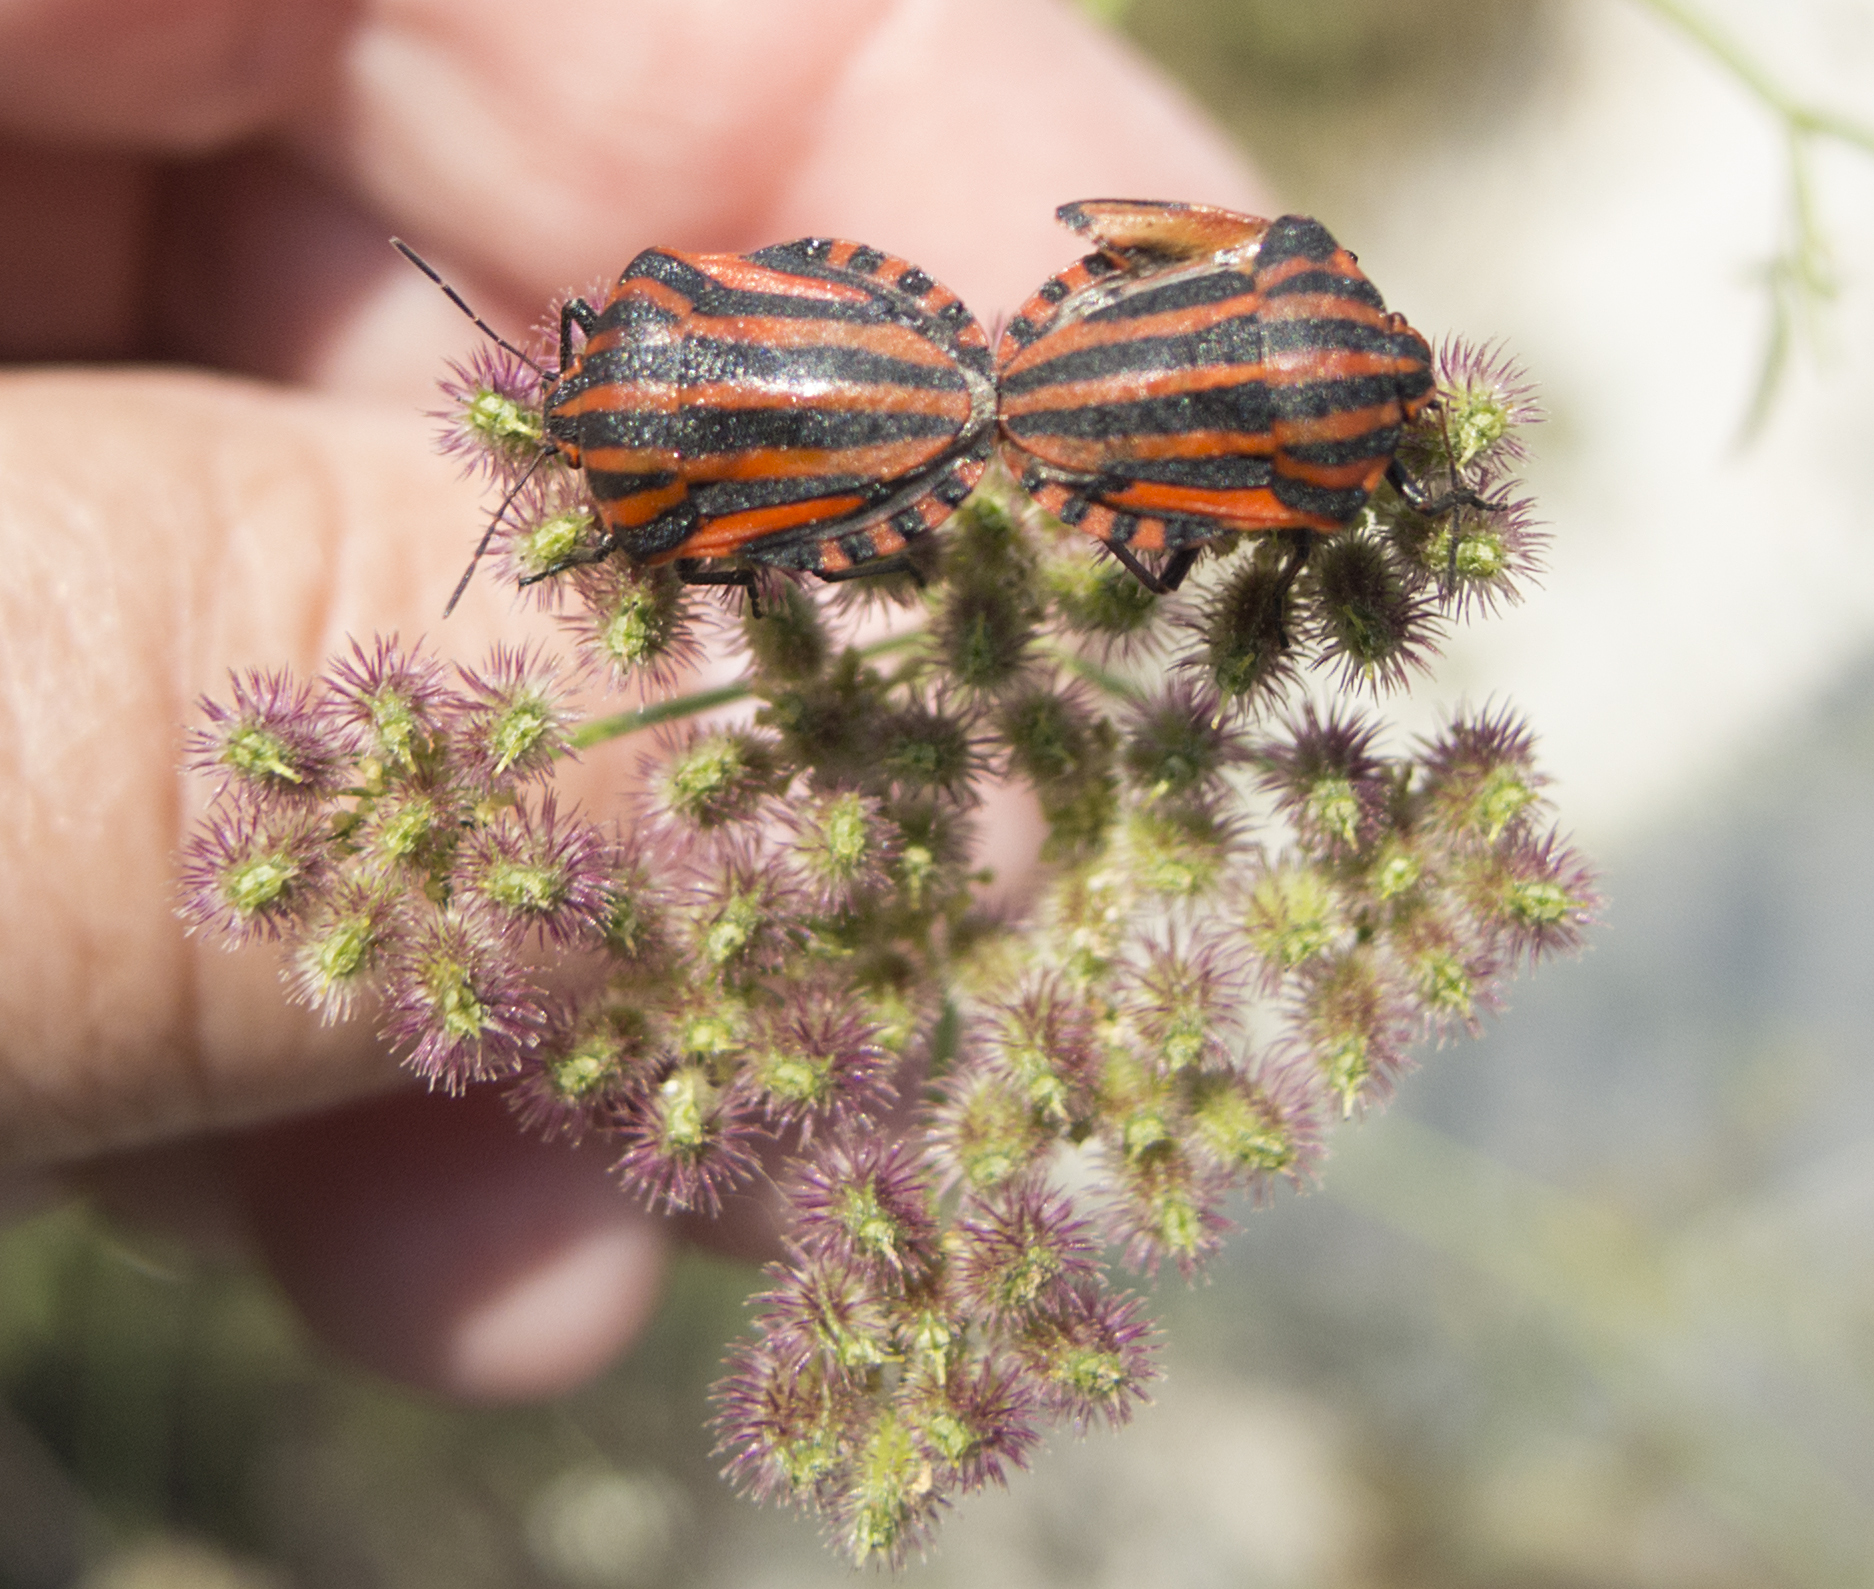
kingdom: Animalia
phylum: Arthropoda
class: Insecta
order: Hemiptera
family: Pentatomidae
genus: Graphosoma
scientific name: Graphosoma italicum
